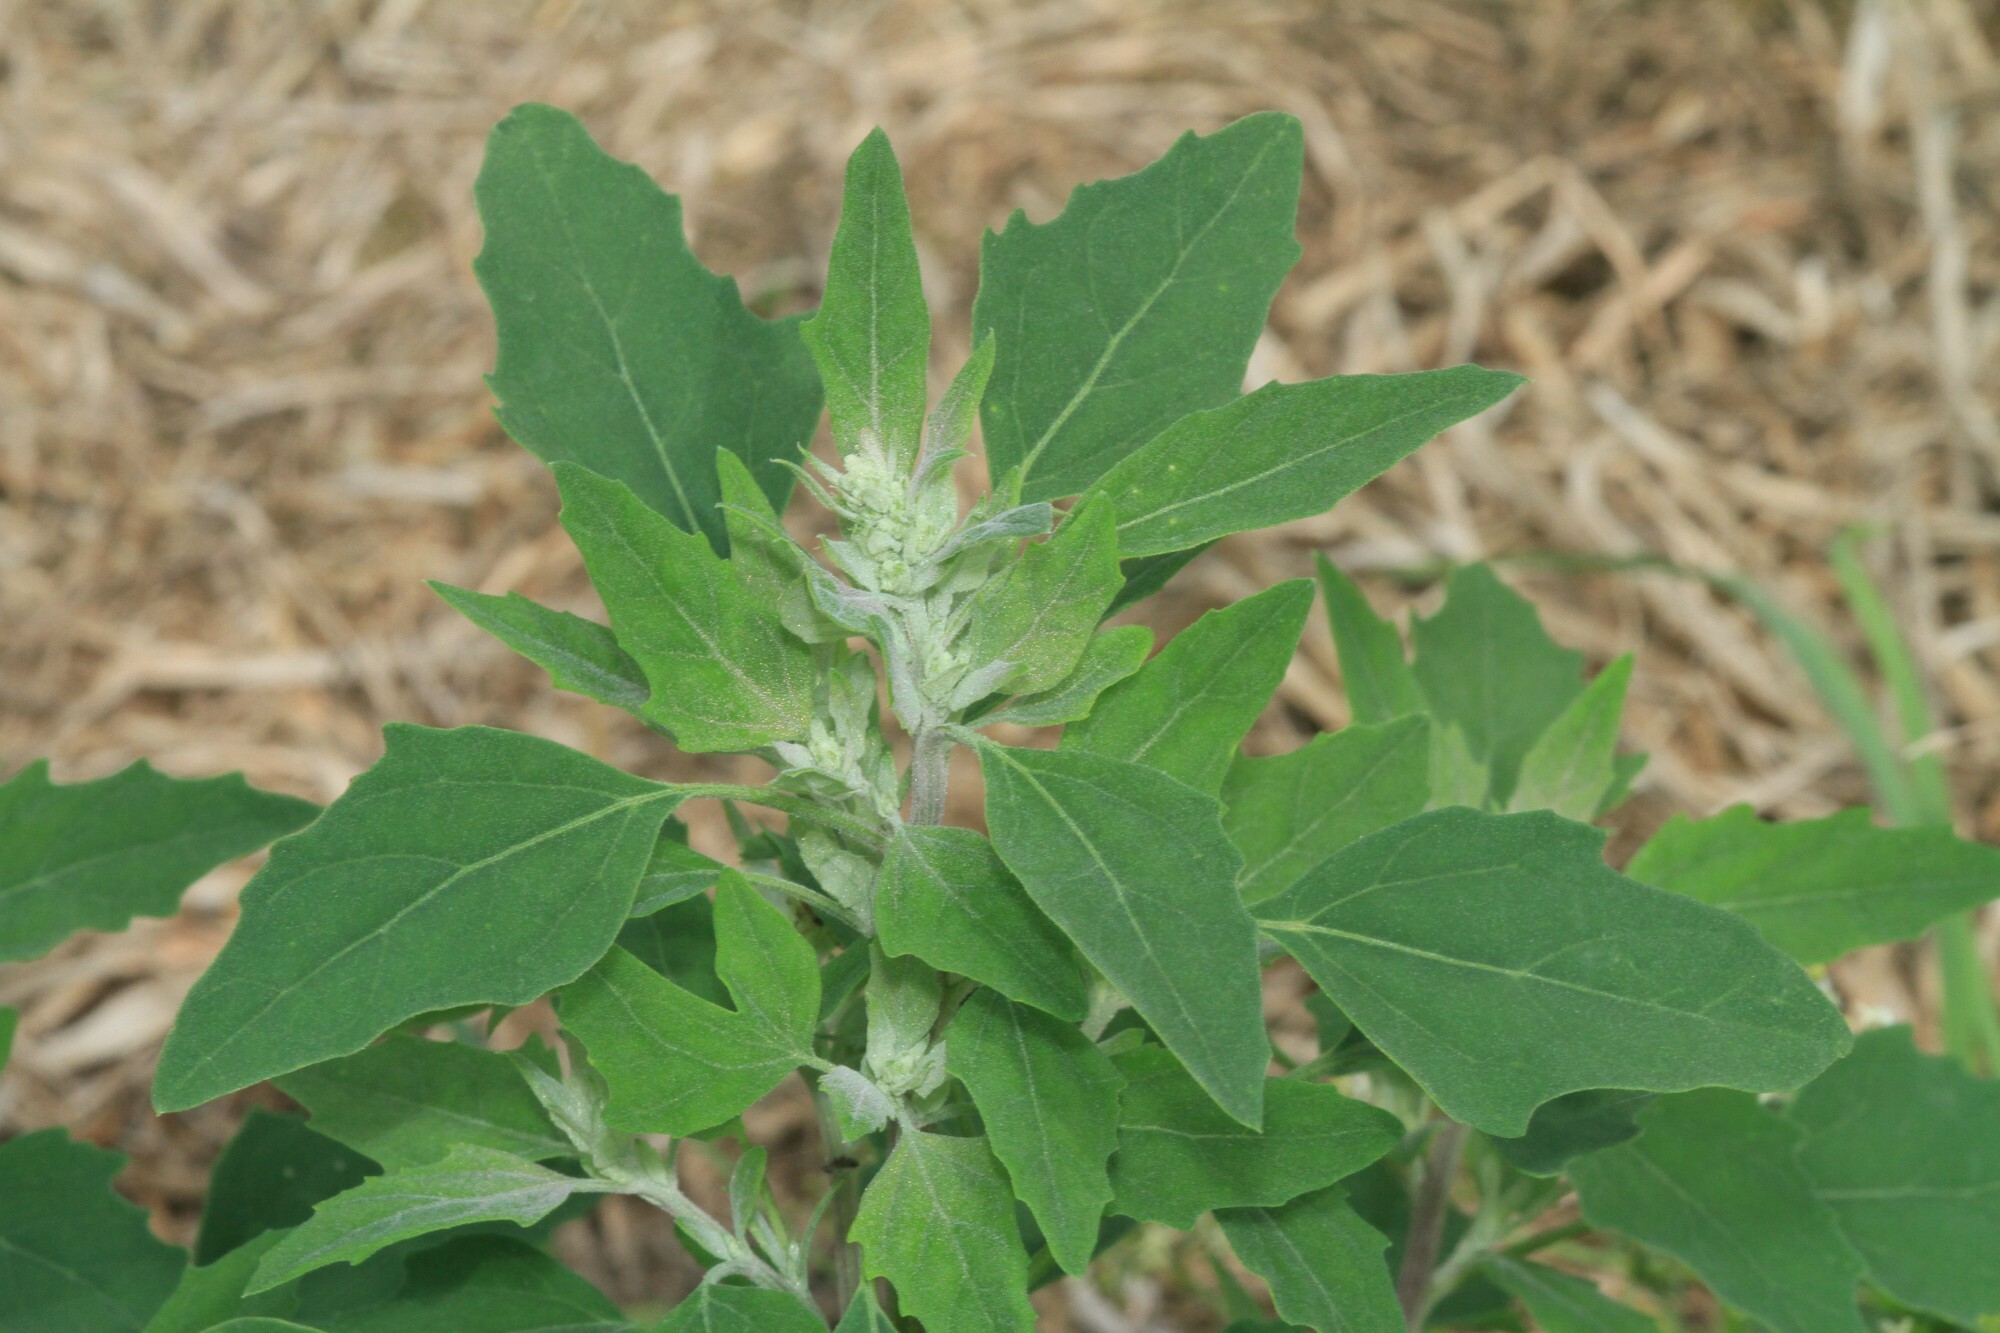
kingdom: Plantae
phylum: Tracheophyta
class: Magnoliopsida
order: Caryophyllales
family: Amaranthaceae
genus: Chenopodium
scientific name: Chenopodium album
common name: Fat-hen
